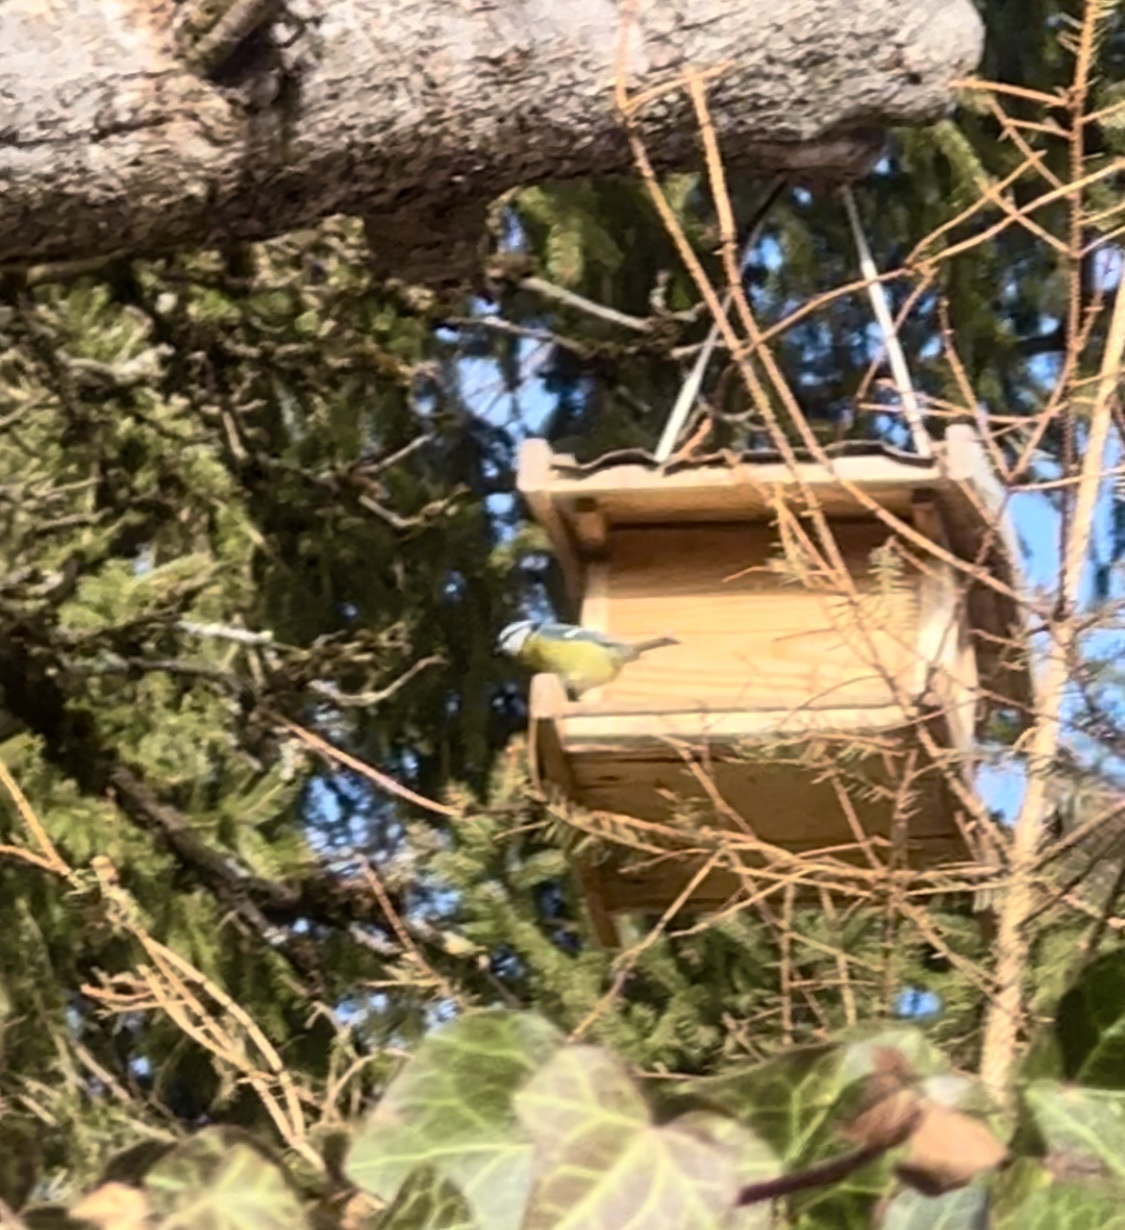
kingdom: Animalia
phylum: Chordata
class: Aves
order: Passeriformes
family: Paridae
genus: Cyanistes
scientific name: Cyanistes caeruleus
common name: Eurasian blue tit
